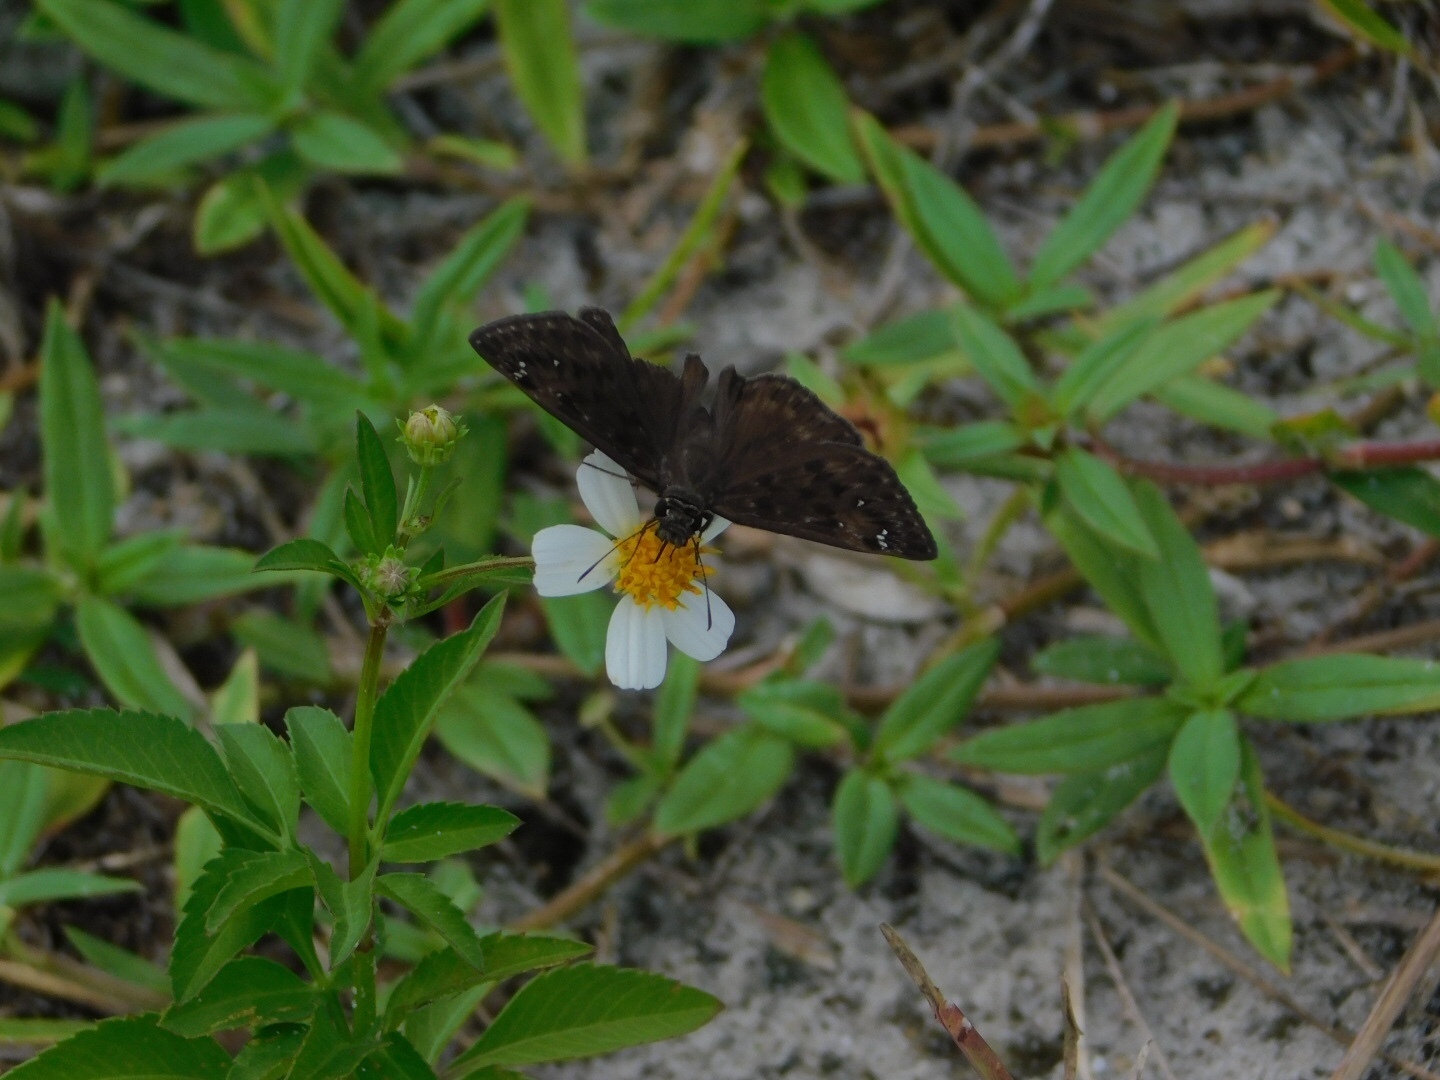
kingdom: Animalia
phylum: Arthropoda
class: Insecta
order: Lepidoptera
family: Hesperiidae
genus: Erynnis
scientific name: Erynnis horatius
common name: Horace's duskywing
